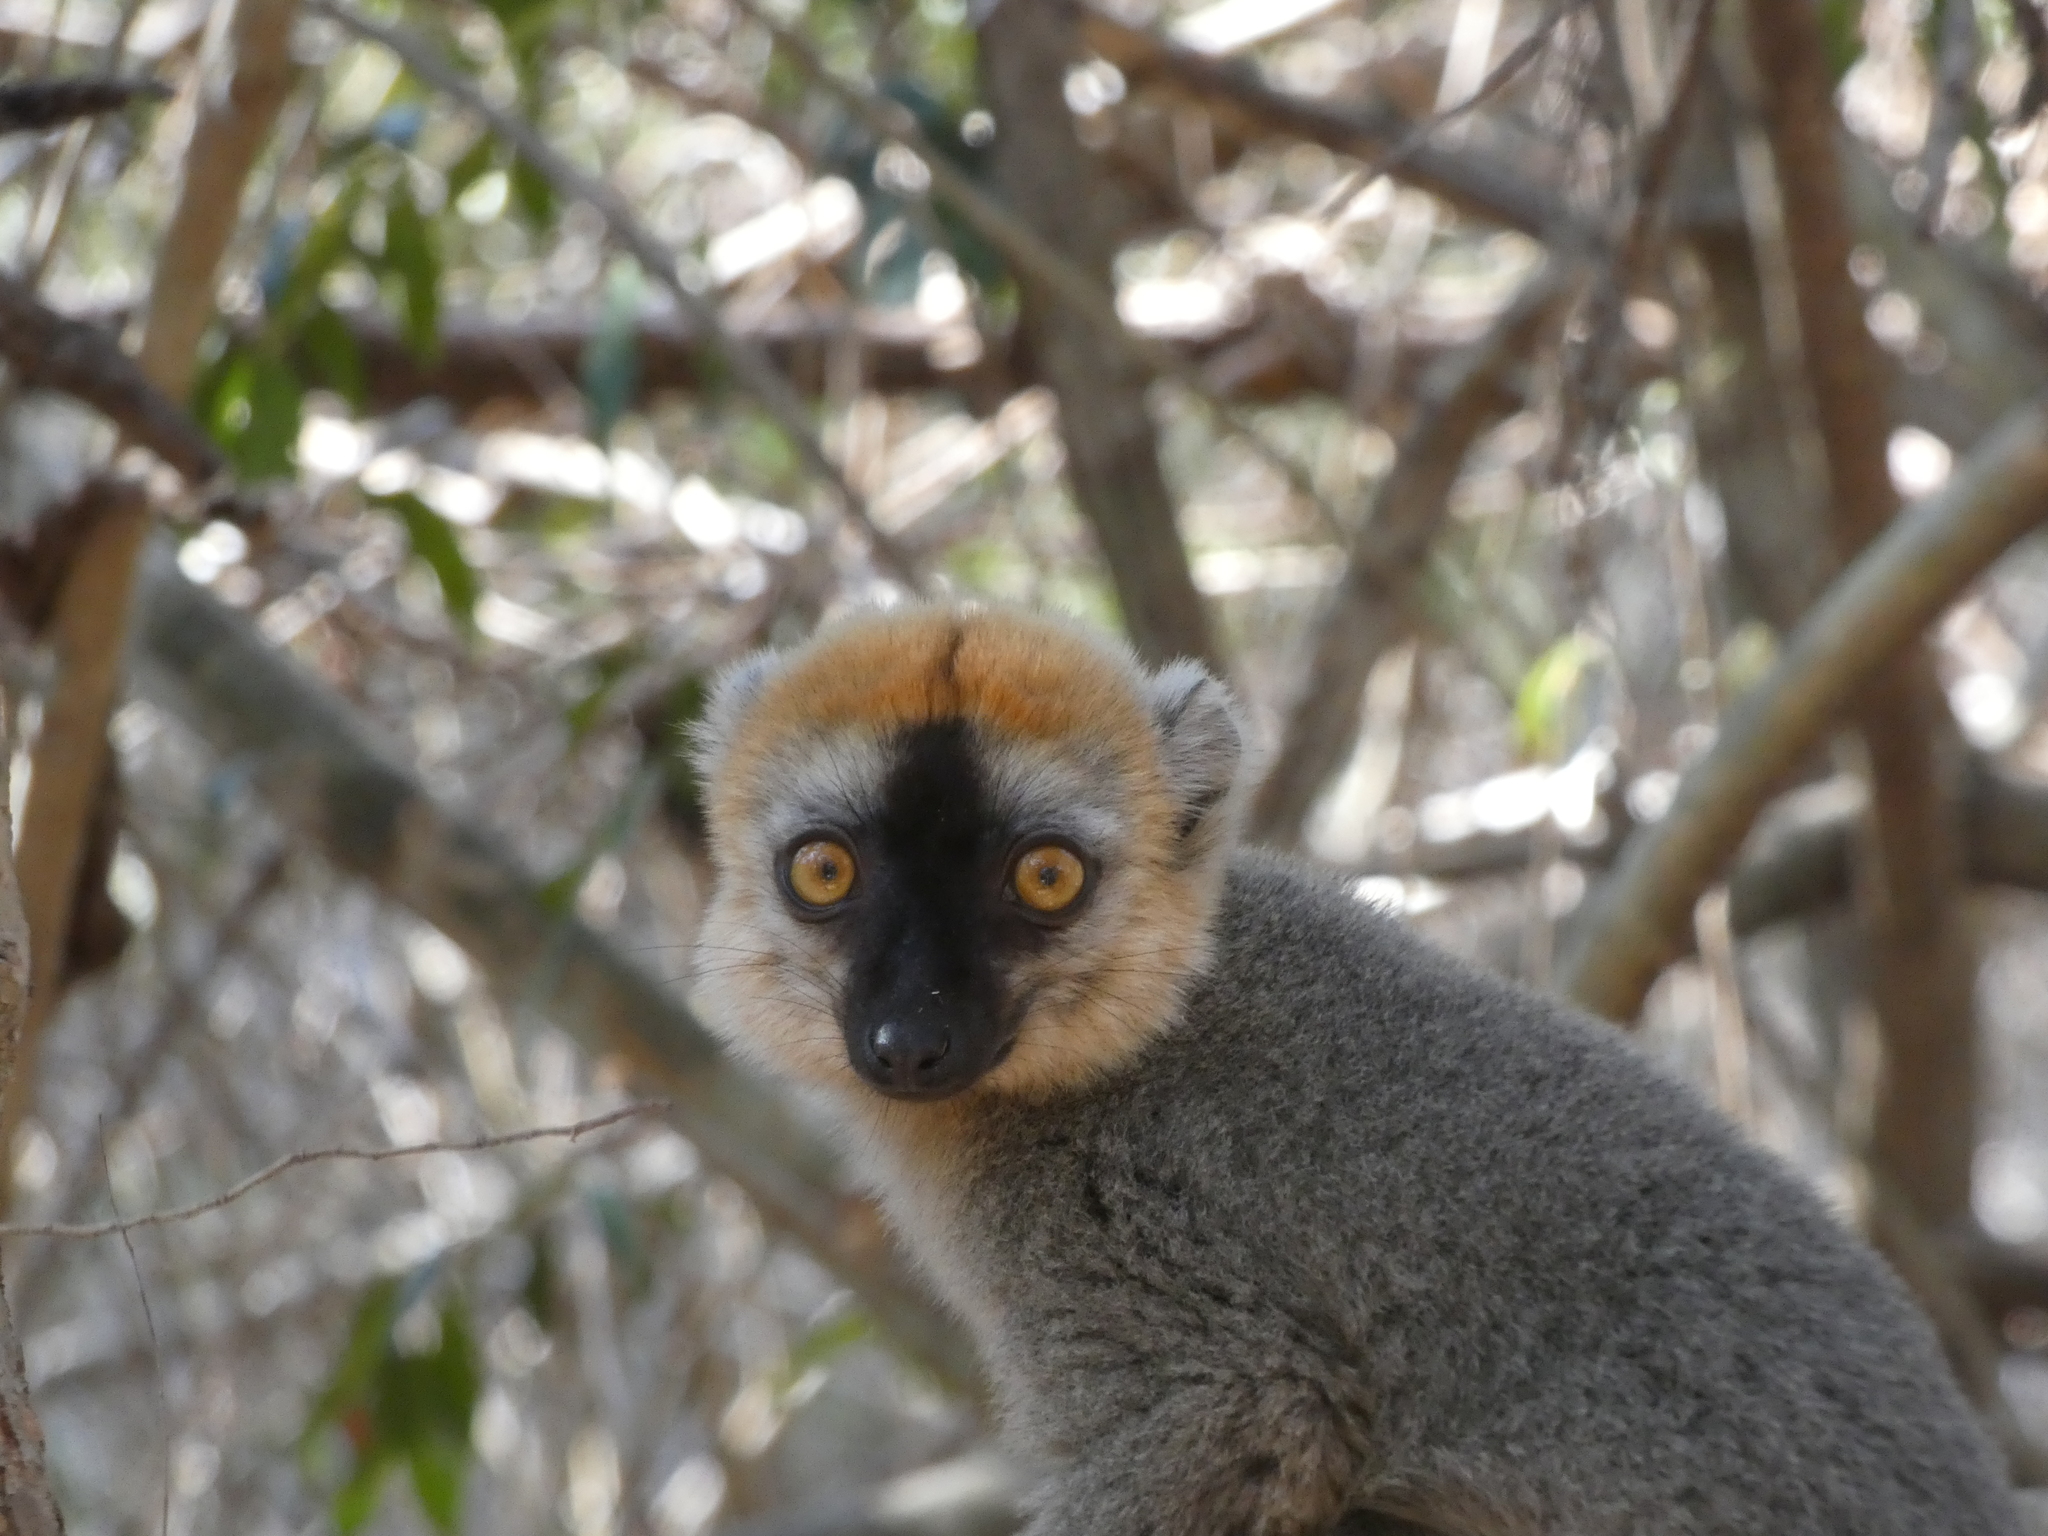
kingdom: Animalia
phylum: Chordata
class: Mammalia
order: Primates
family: Lemuridae
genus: Eulemur
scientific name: Eulemur rufifrons
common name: Red-fronted brown lemur
